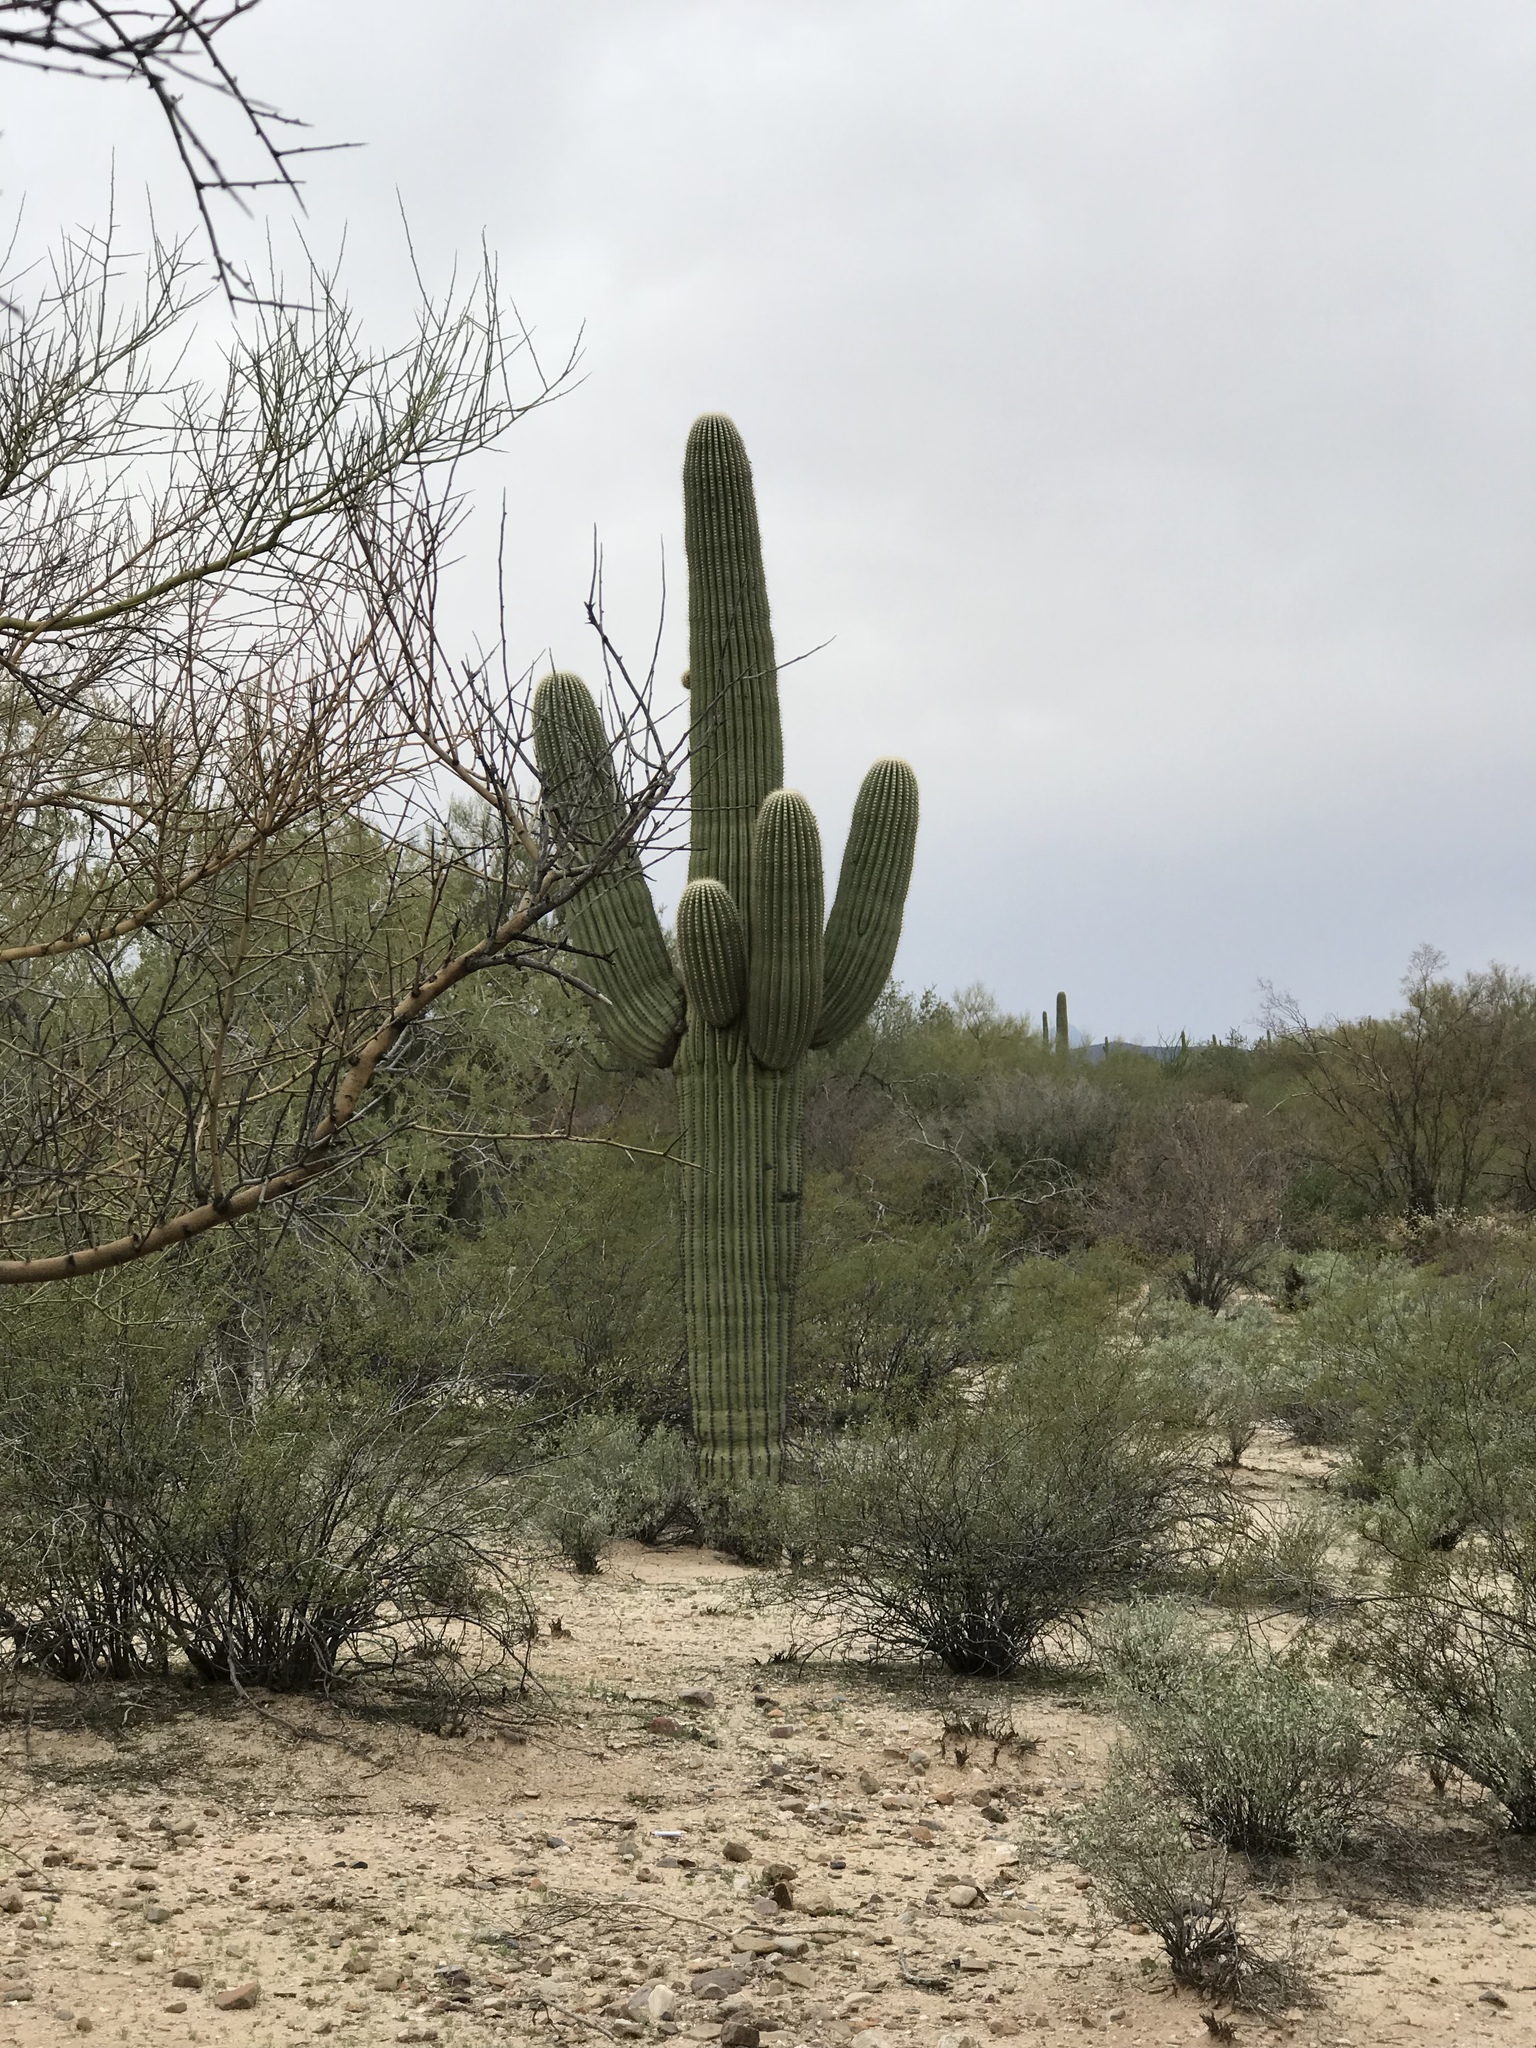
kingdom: Plantae
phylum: Tracheophyta
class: Magnoliopsida
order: Caryophyllales
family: Cactaceae
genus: Carnegiea
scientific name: Carnegiea gigantea
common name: Saguaro
